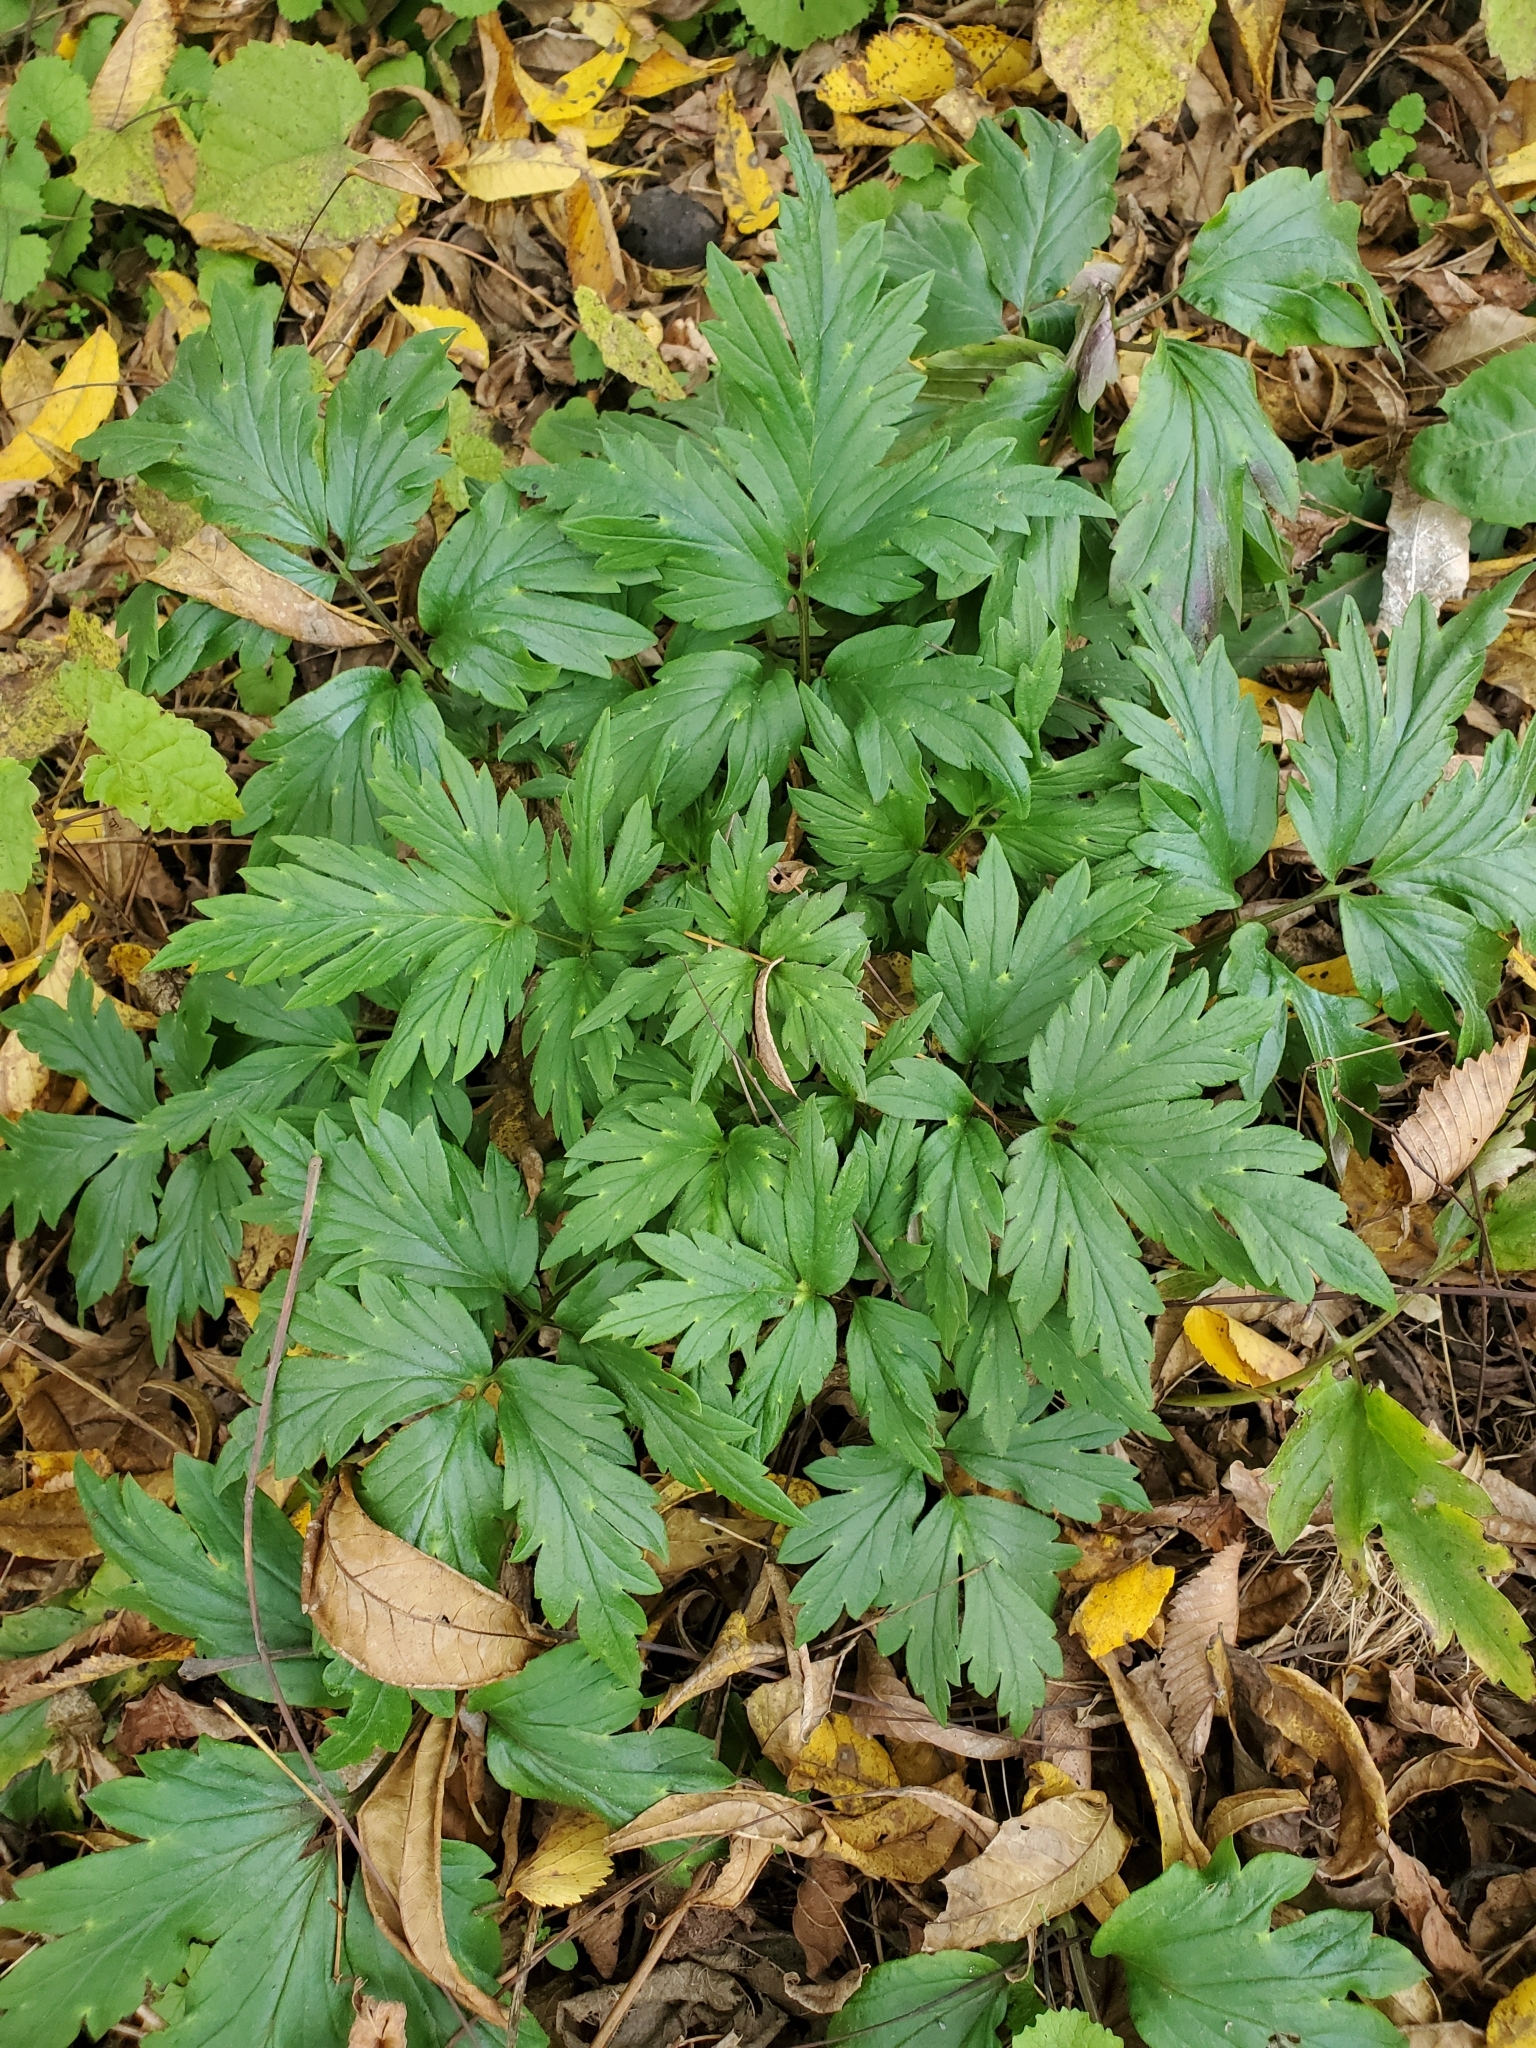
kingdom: Plantae
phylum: Tracheophyta
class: Magnoliopsida
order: Boraginales
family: Hydrophyllaceae
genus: Hydrophyllum
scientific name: Hydrophyllum virginianum
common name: Virginia waterleaf
